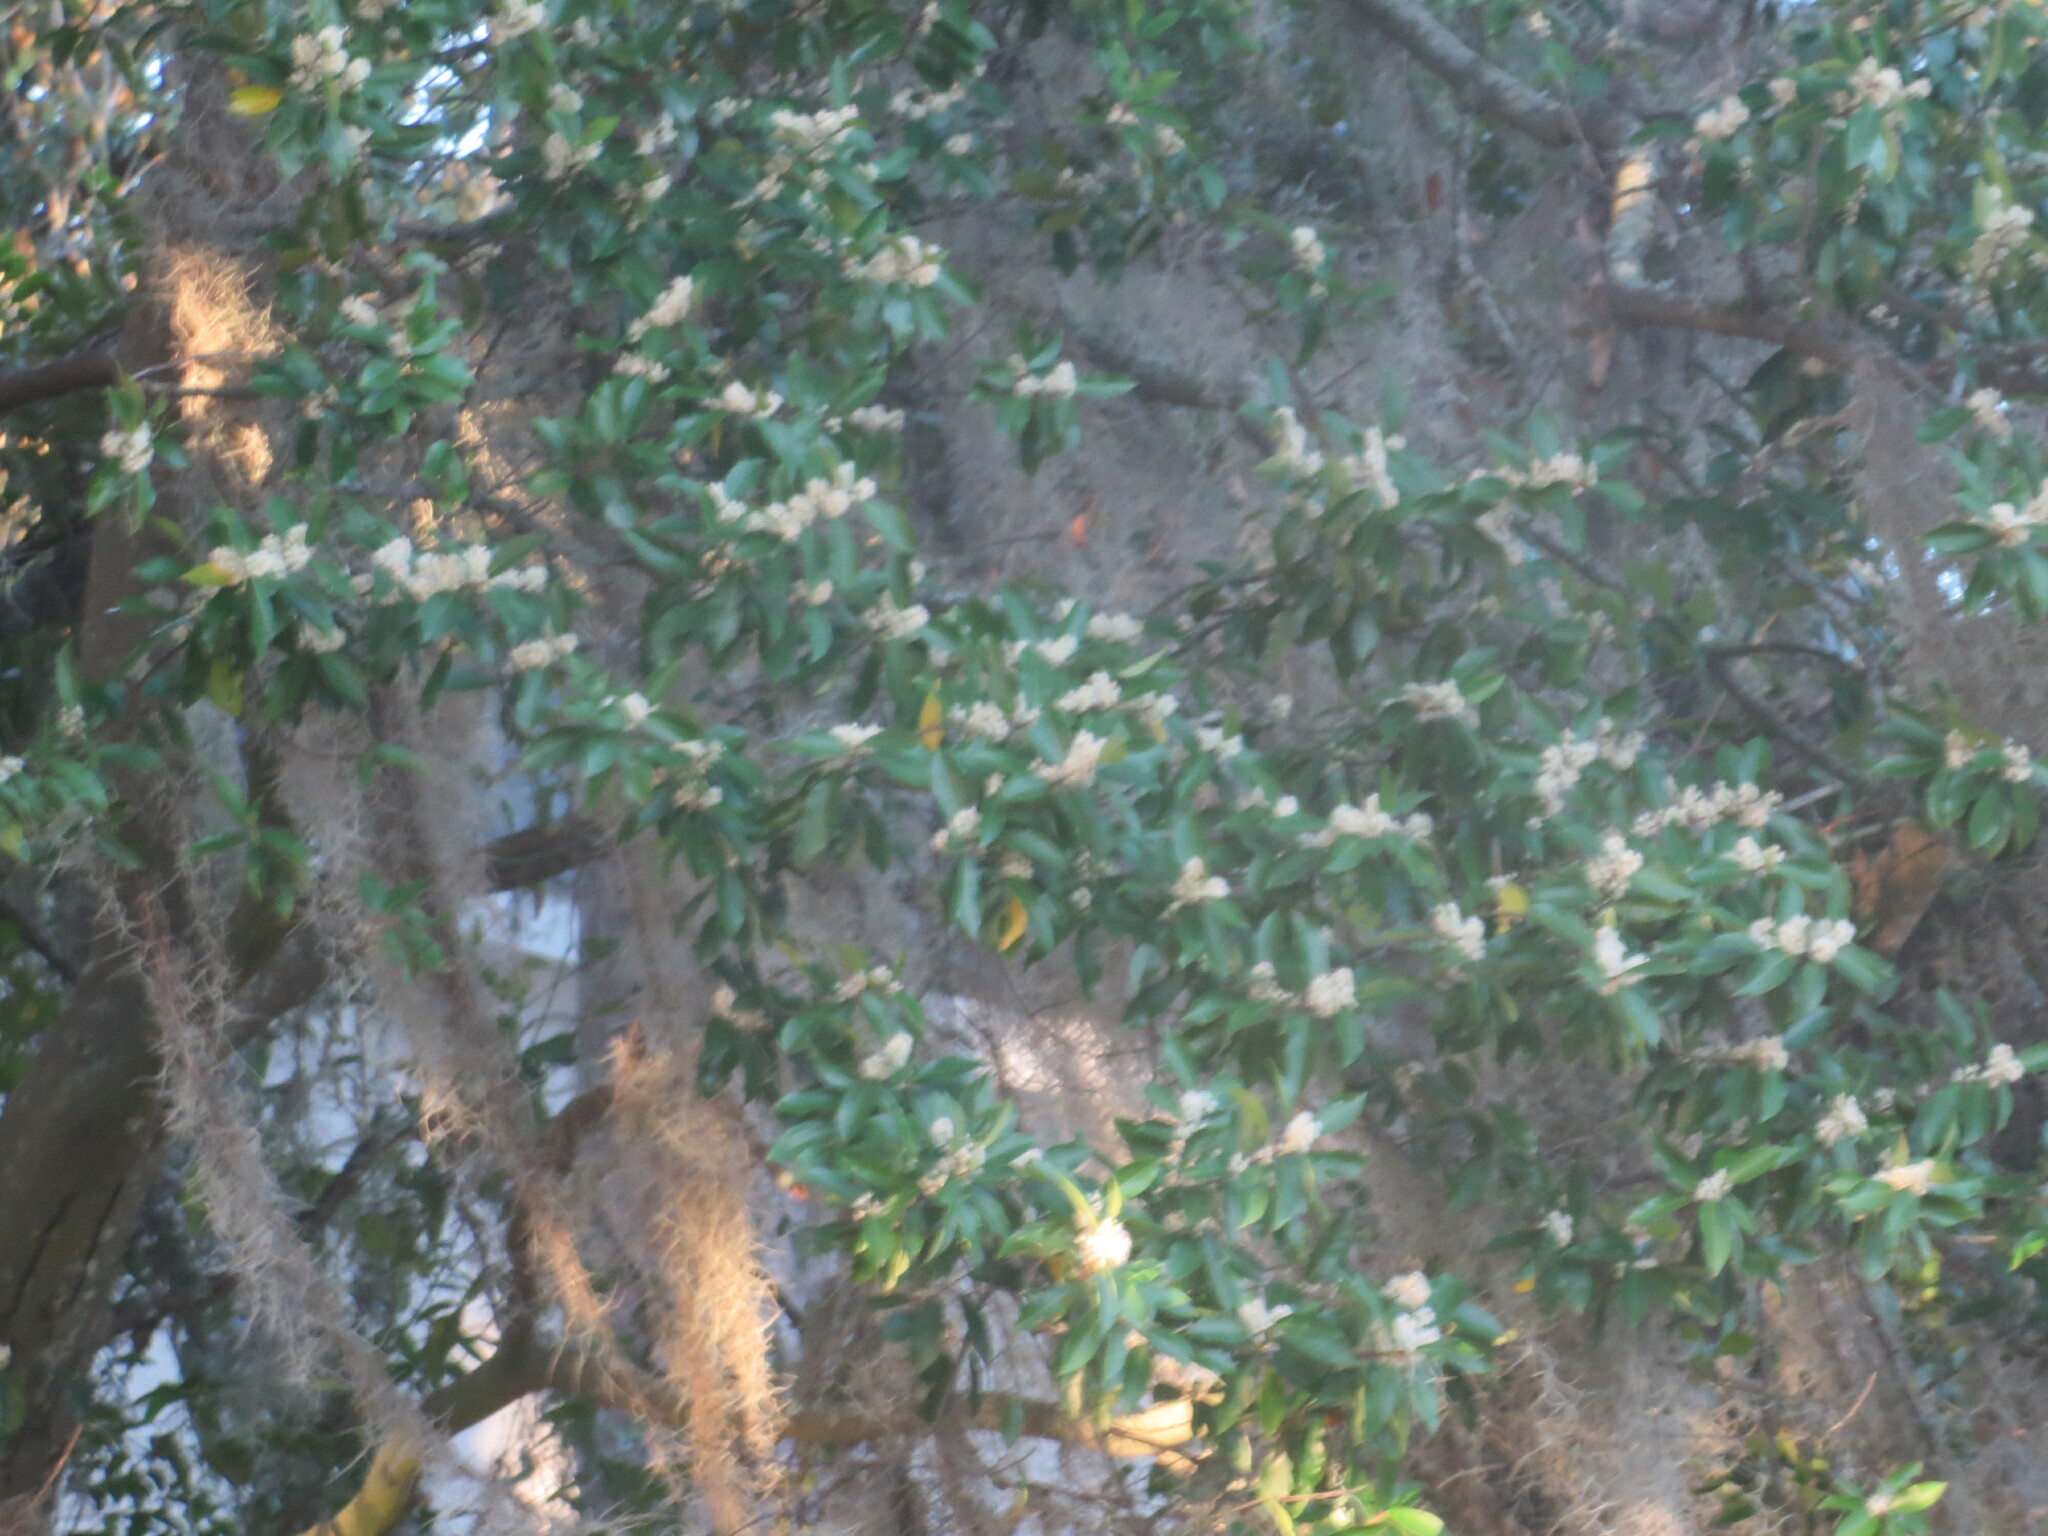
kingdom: Plantae
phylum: Tracheophyta
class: Magnoliopsida
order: Rosales
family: Rosaceae
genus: Prunus
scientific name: Prunus caroliniana
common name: Carolina laurel cherry
